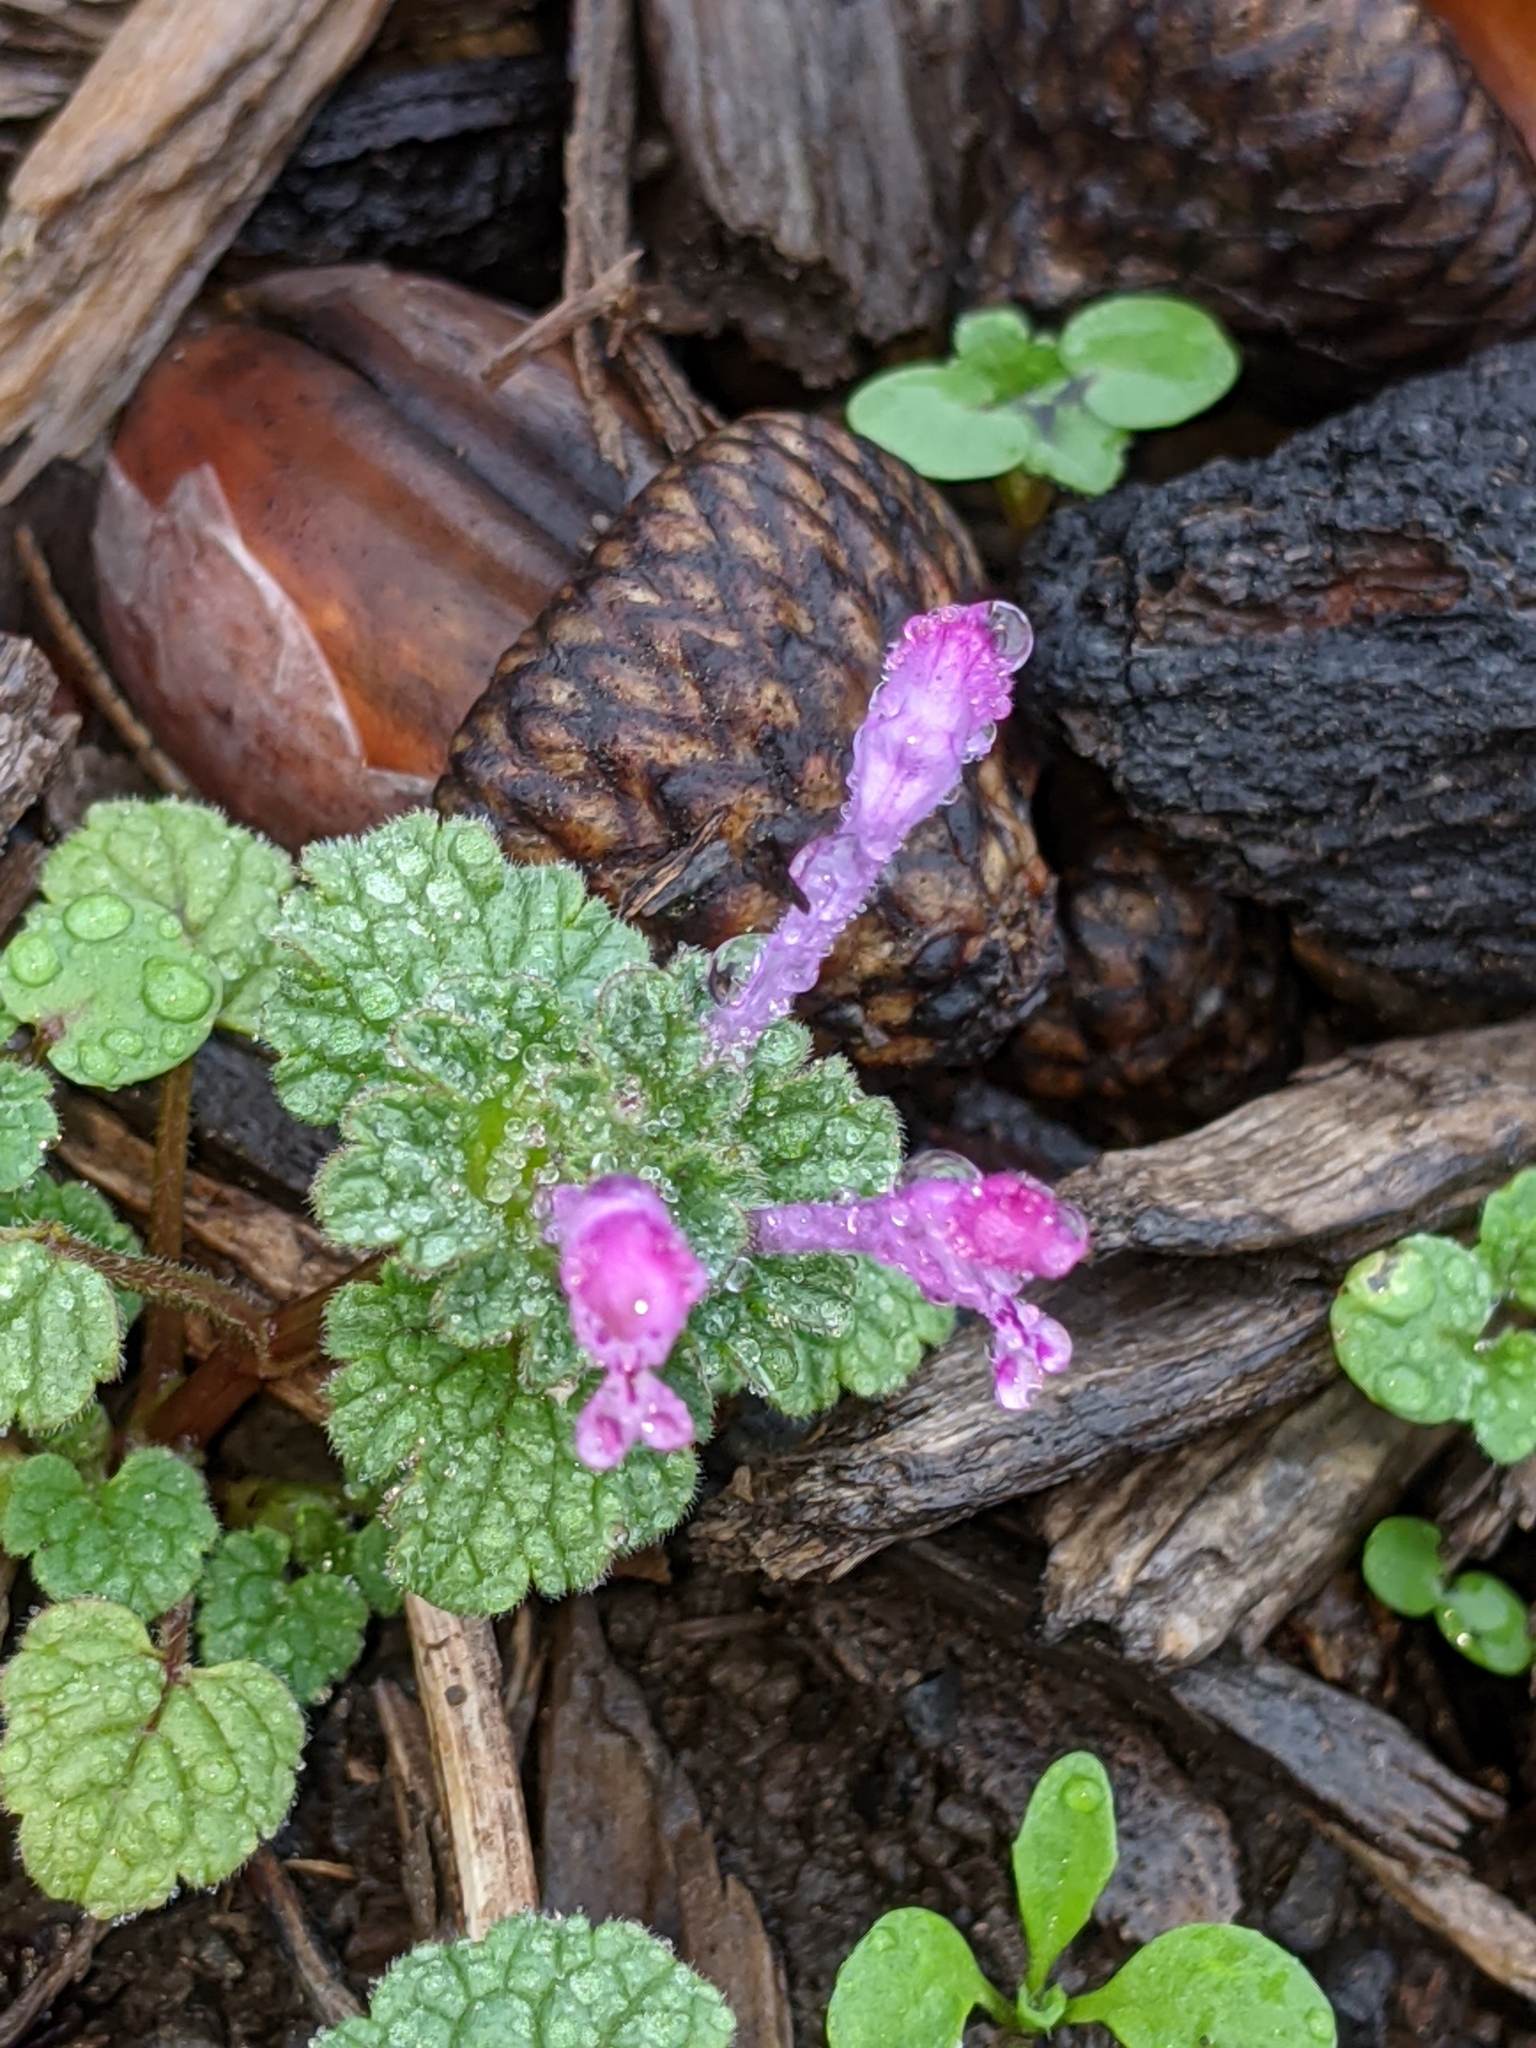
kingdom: Plantae
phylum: Tracheophyta
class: Magnoliopsida
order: Lamiales
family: Lamiaceae
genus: Lamium
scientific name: Lamium amplexicaule
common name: Henbit dead-nettle
